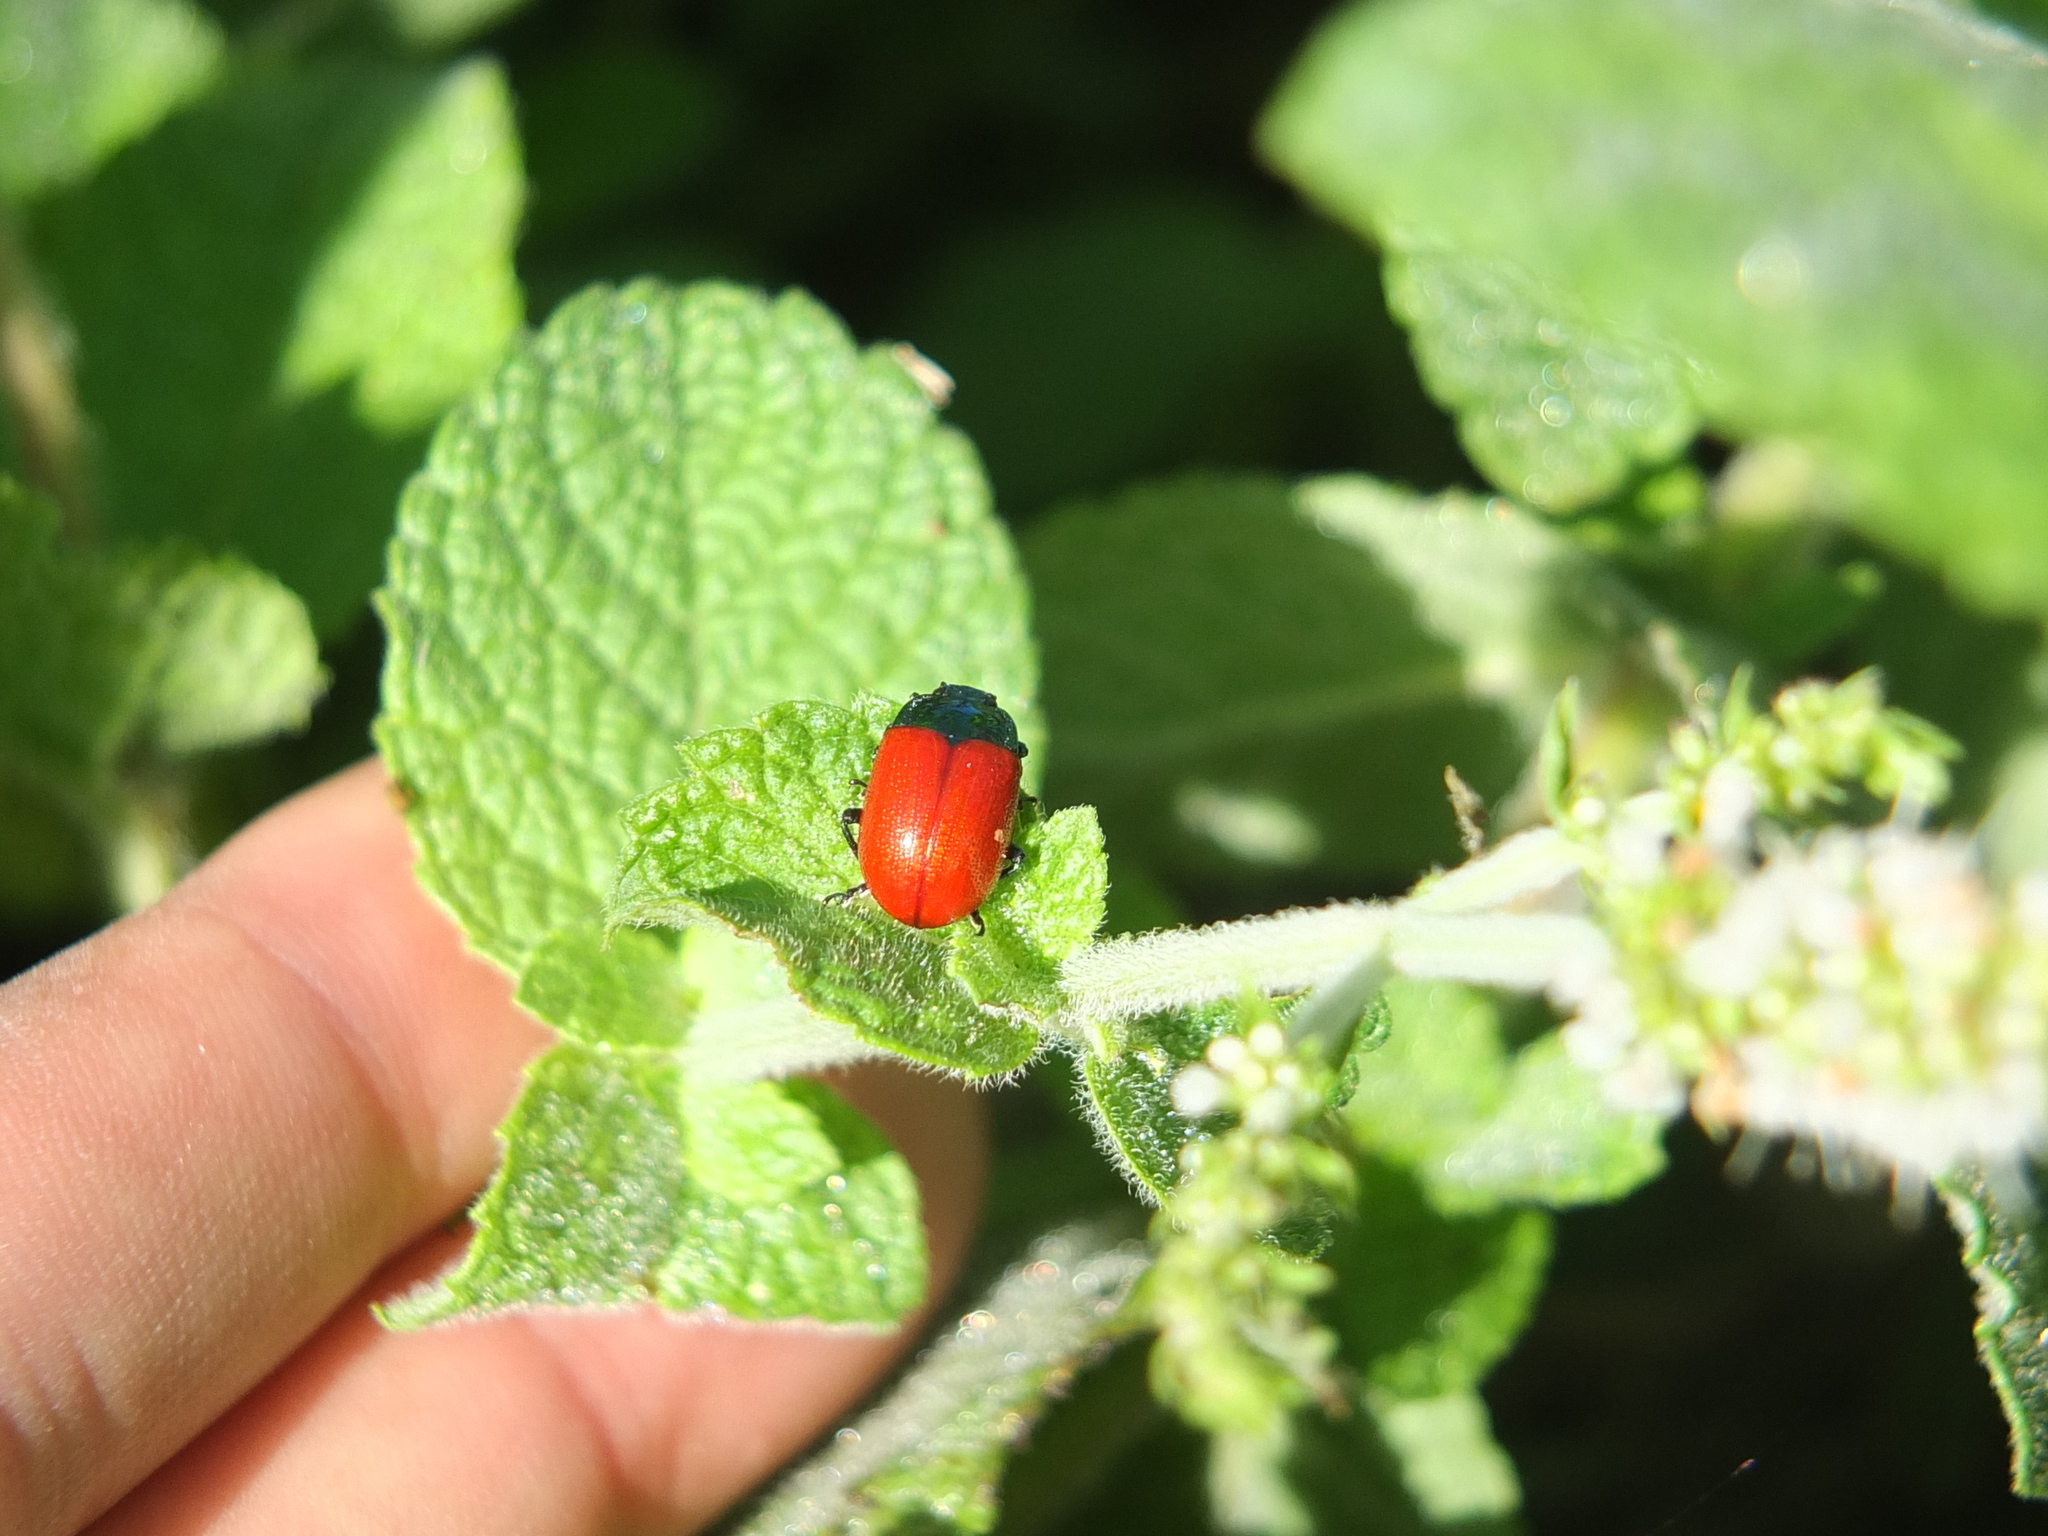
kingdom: Animalia
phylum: Arthropoda
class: Insecta
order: Coleoptera
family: Chrysomelidae
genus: Chrysolina
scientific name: Chrysolina grossa
